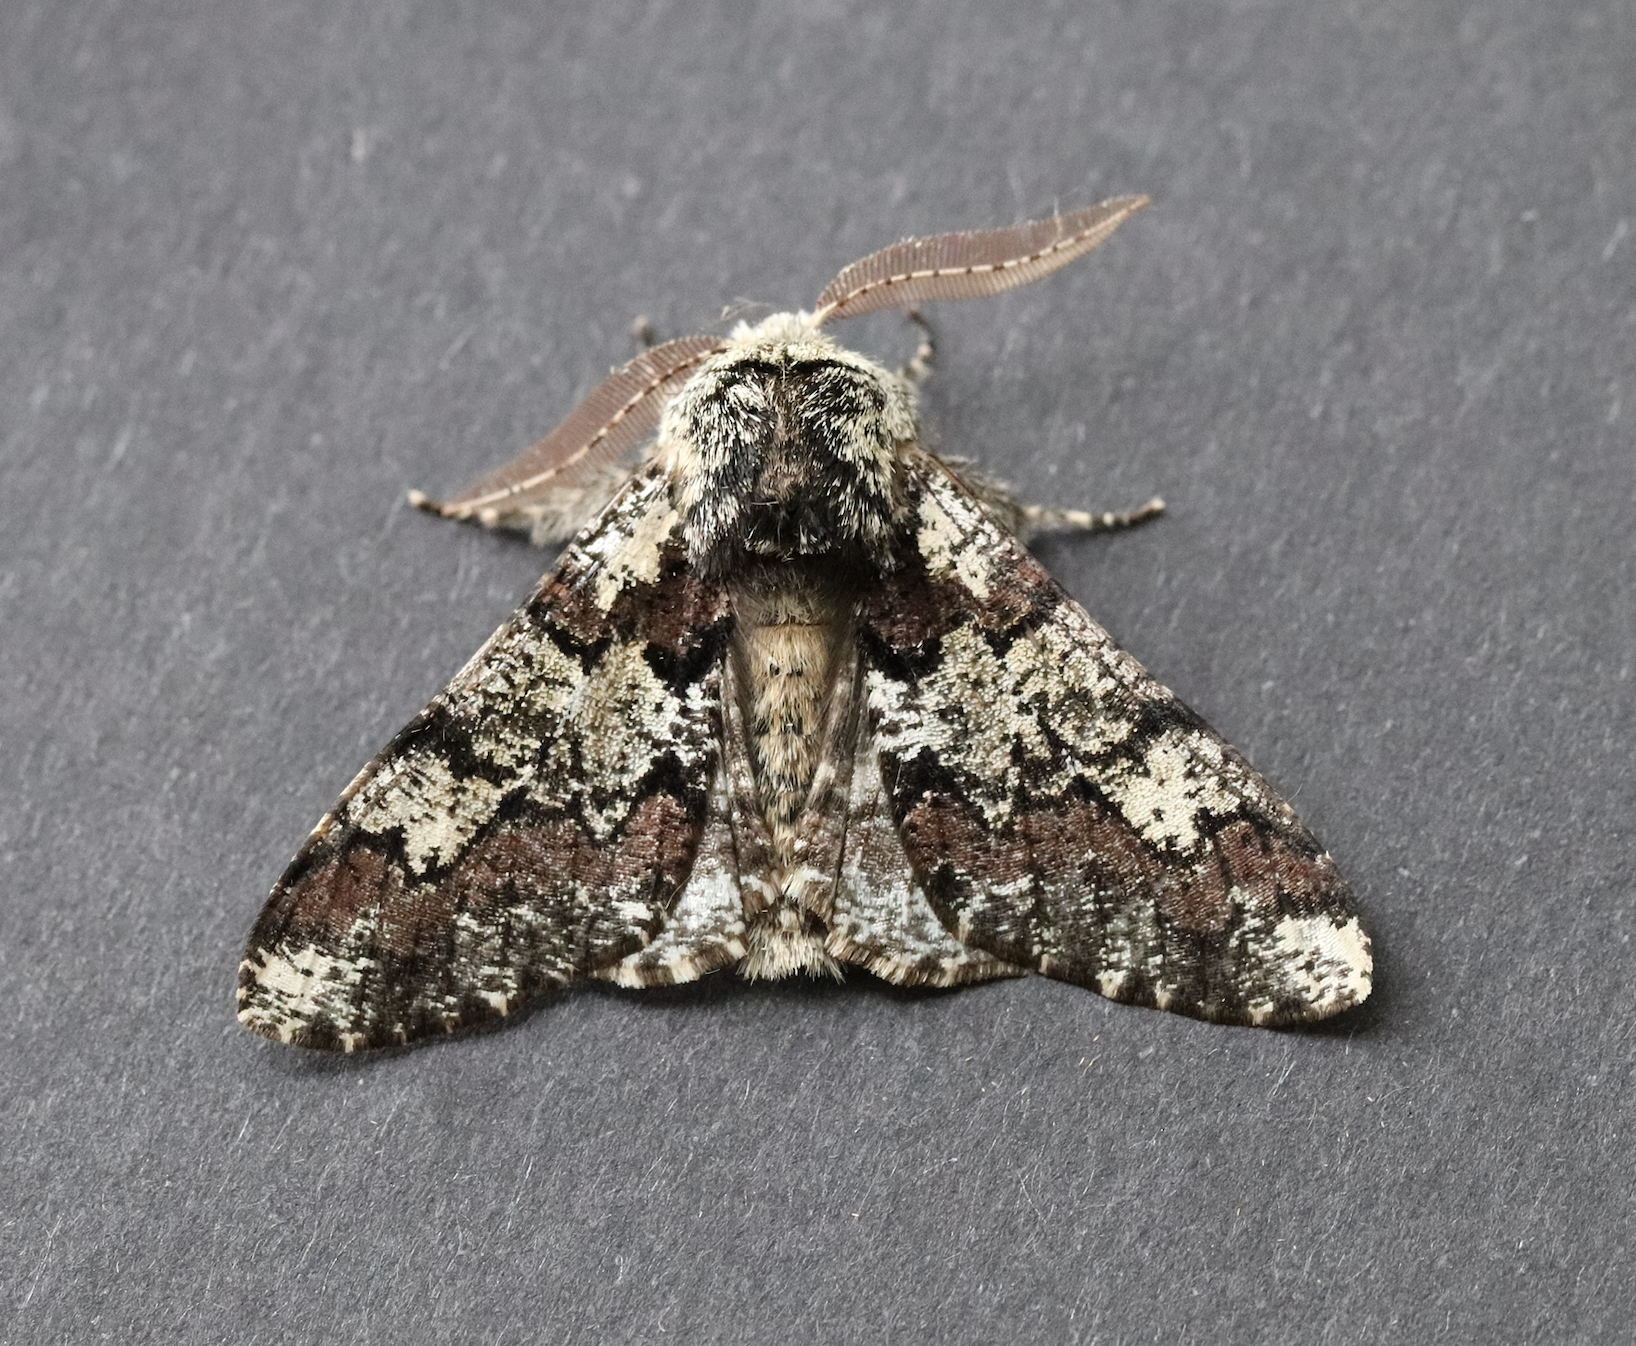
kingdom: Animalia
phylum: Arthropoda
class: Insecta
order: Lepidoptera
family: Geometridae
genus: Biston
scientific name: Biston strataria
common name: Oak beauty
